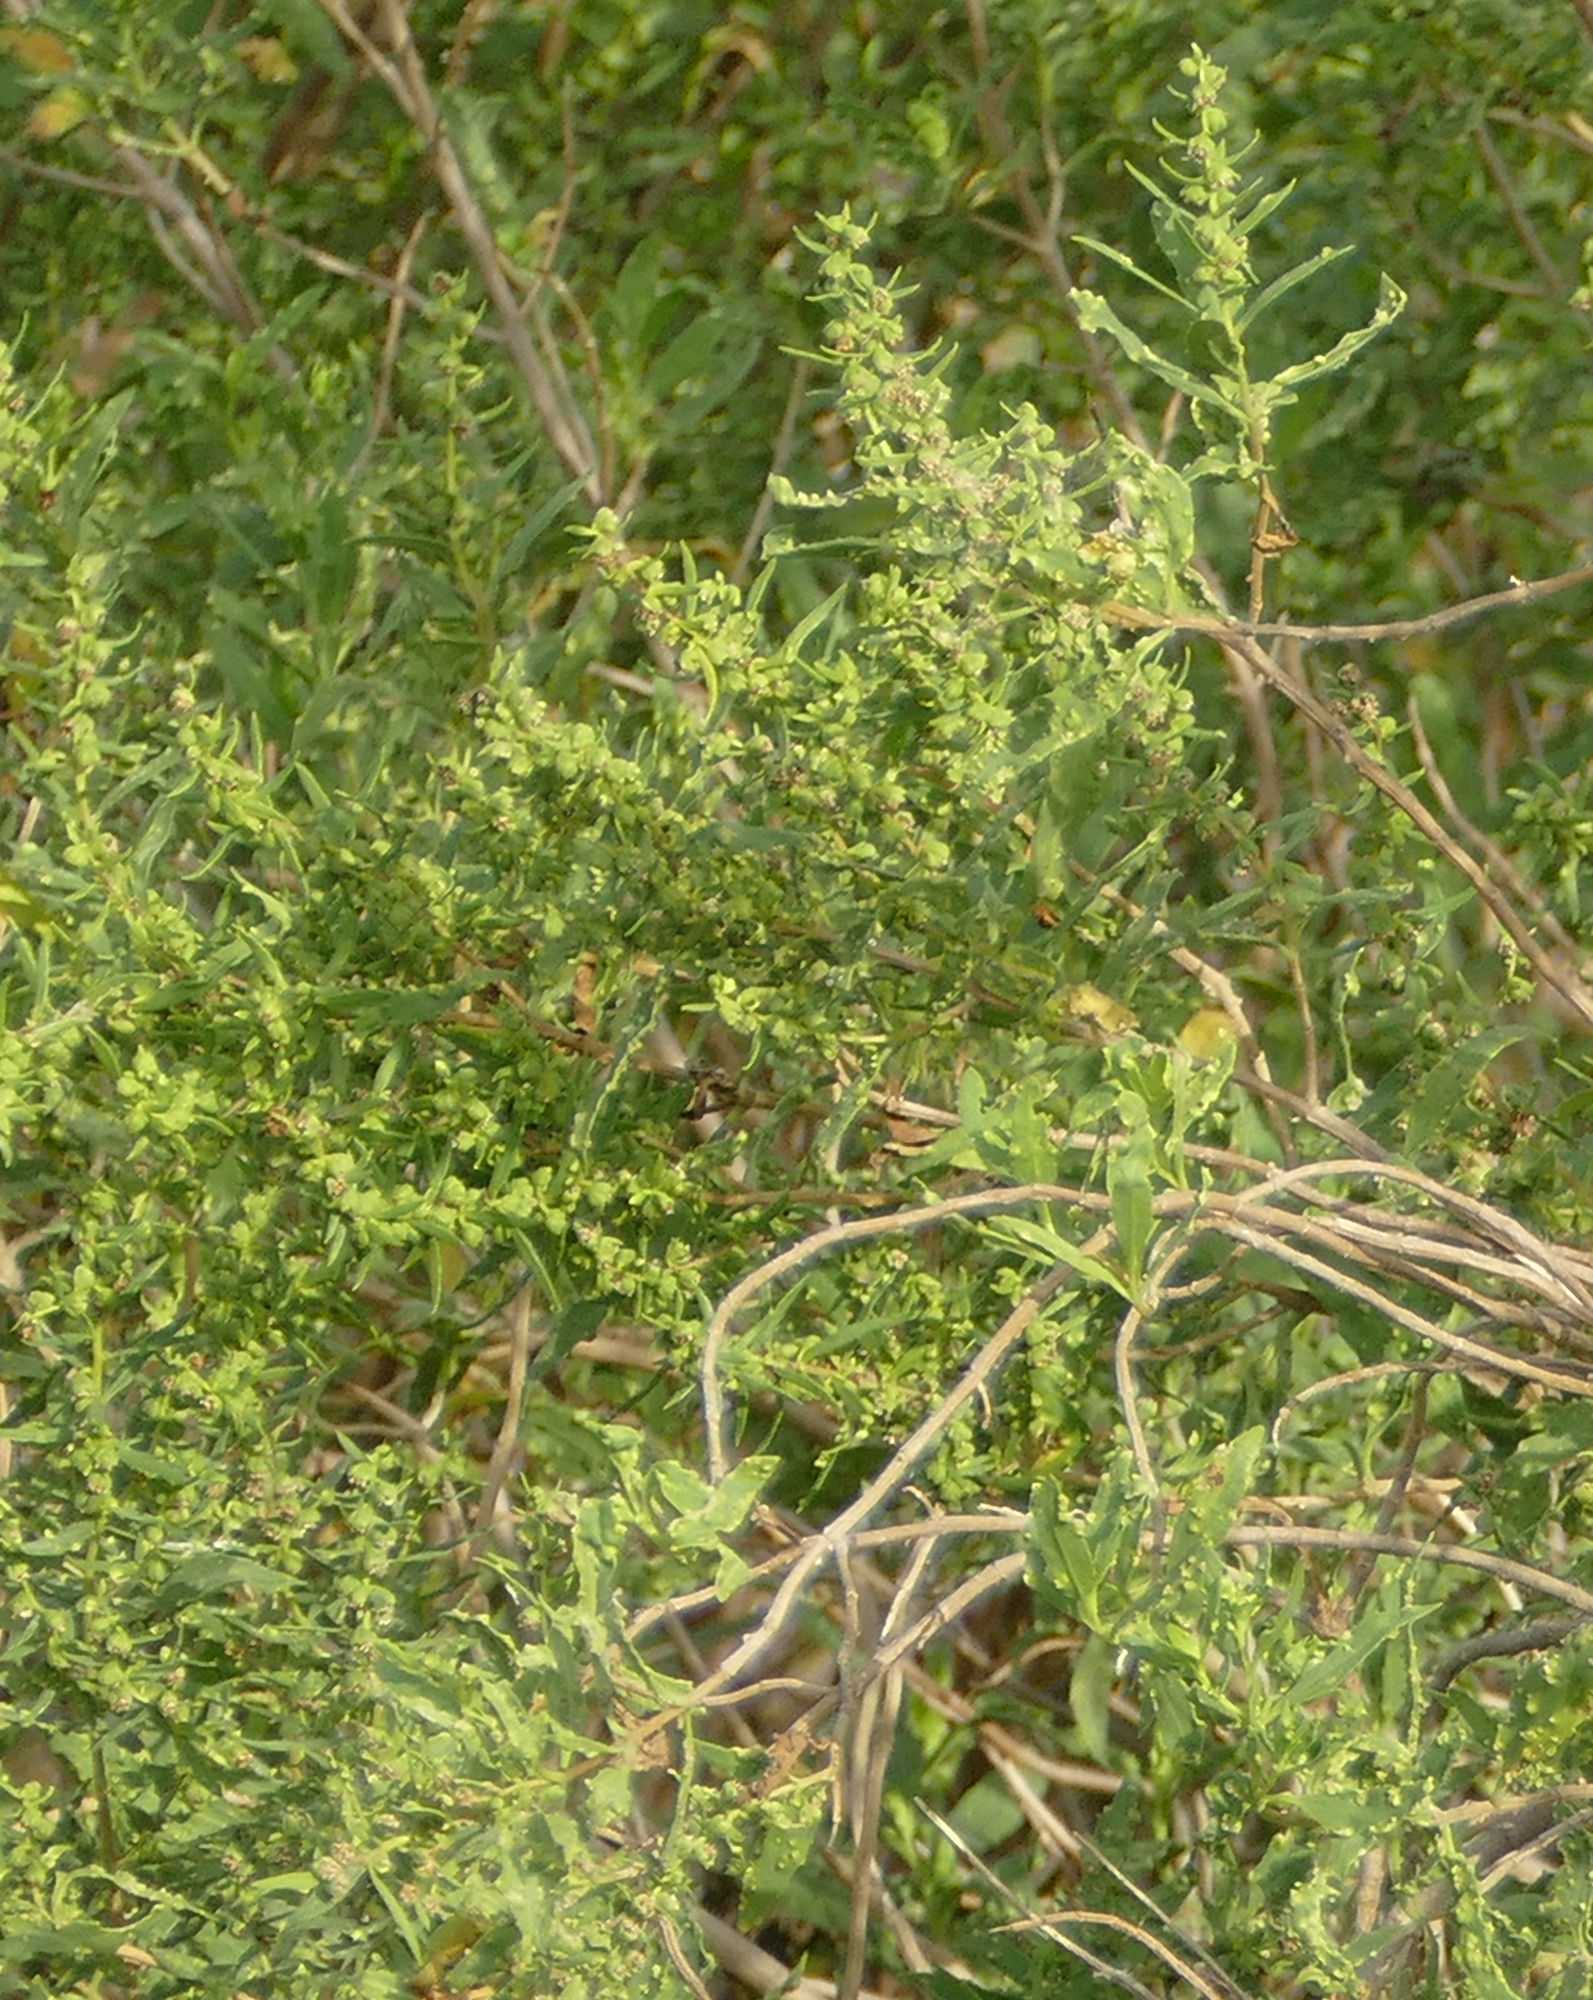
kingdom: Plantae
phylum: Tracheophyta
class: Magnoliopsida
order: Asterales
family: Asteraceae
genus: Iva
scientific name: Iva frutescens
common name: Big-leaved marsh-elder
